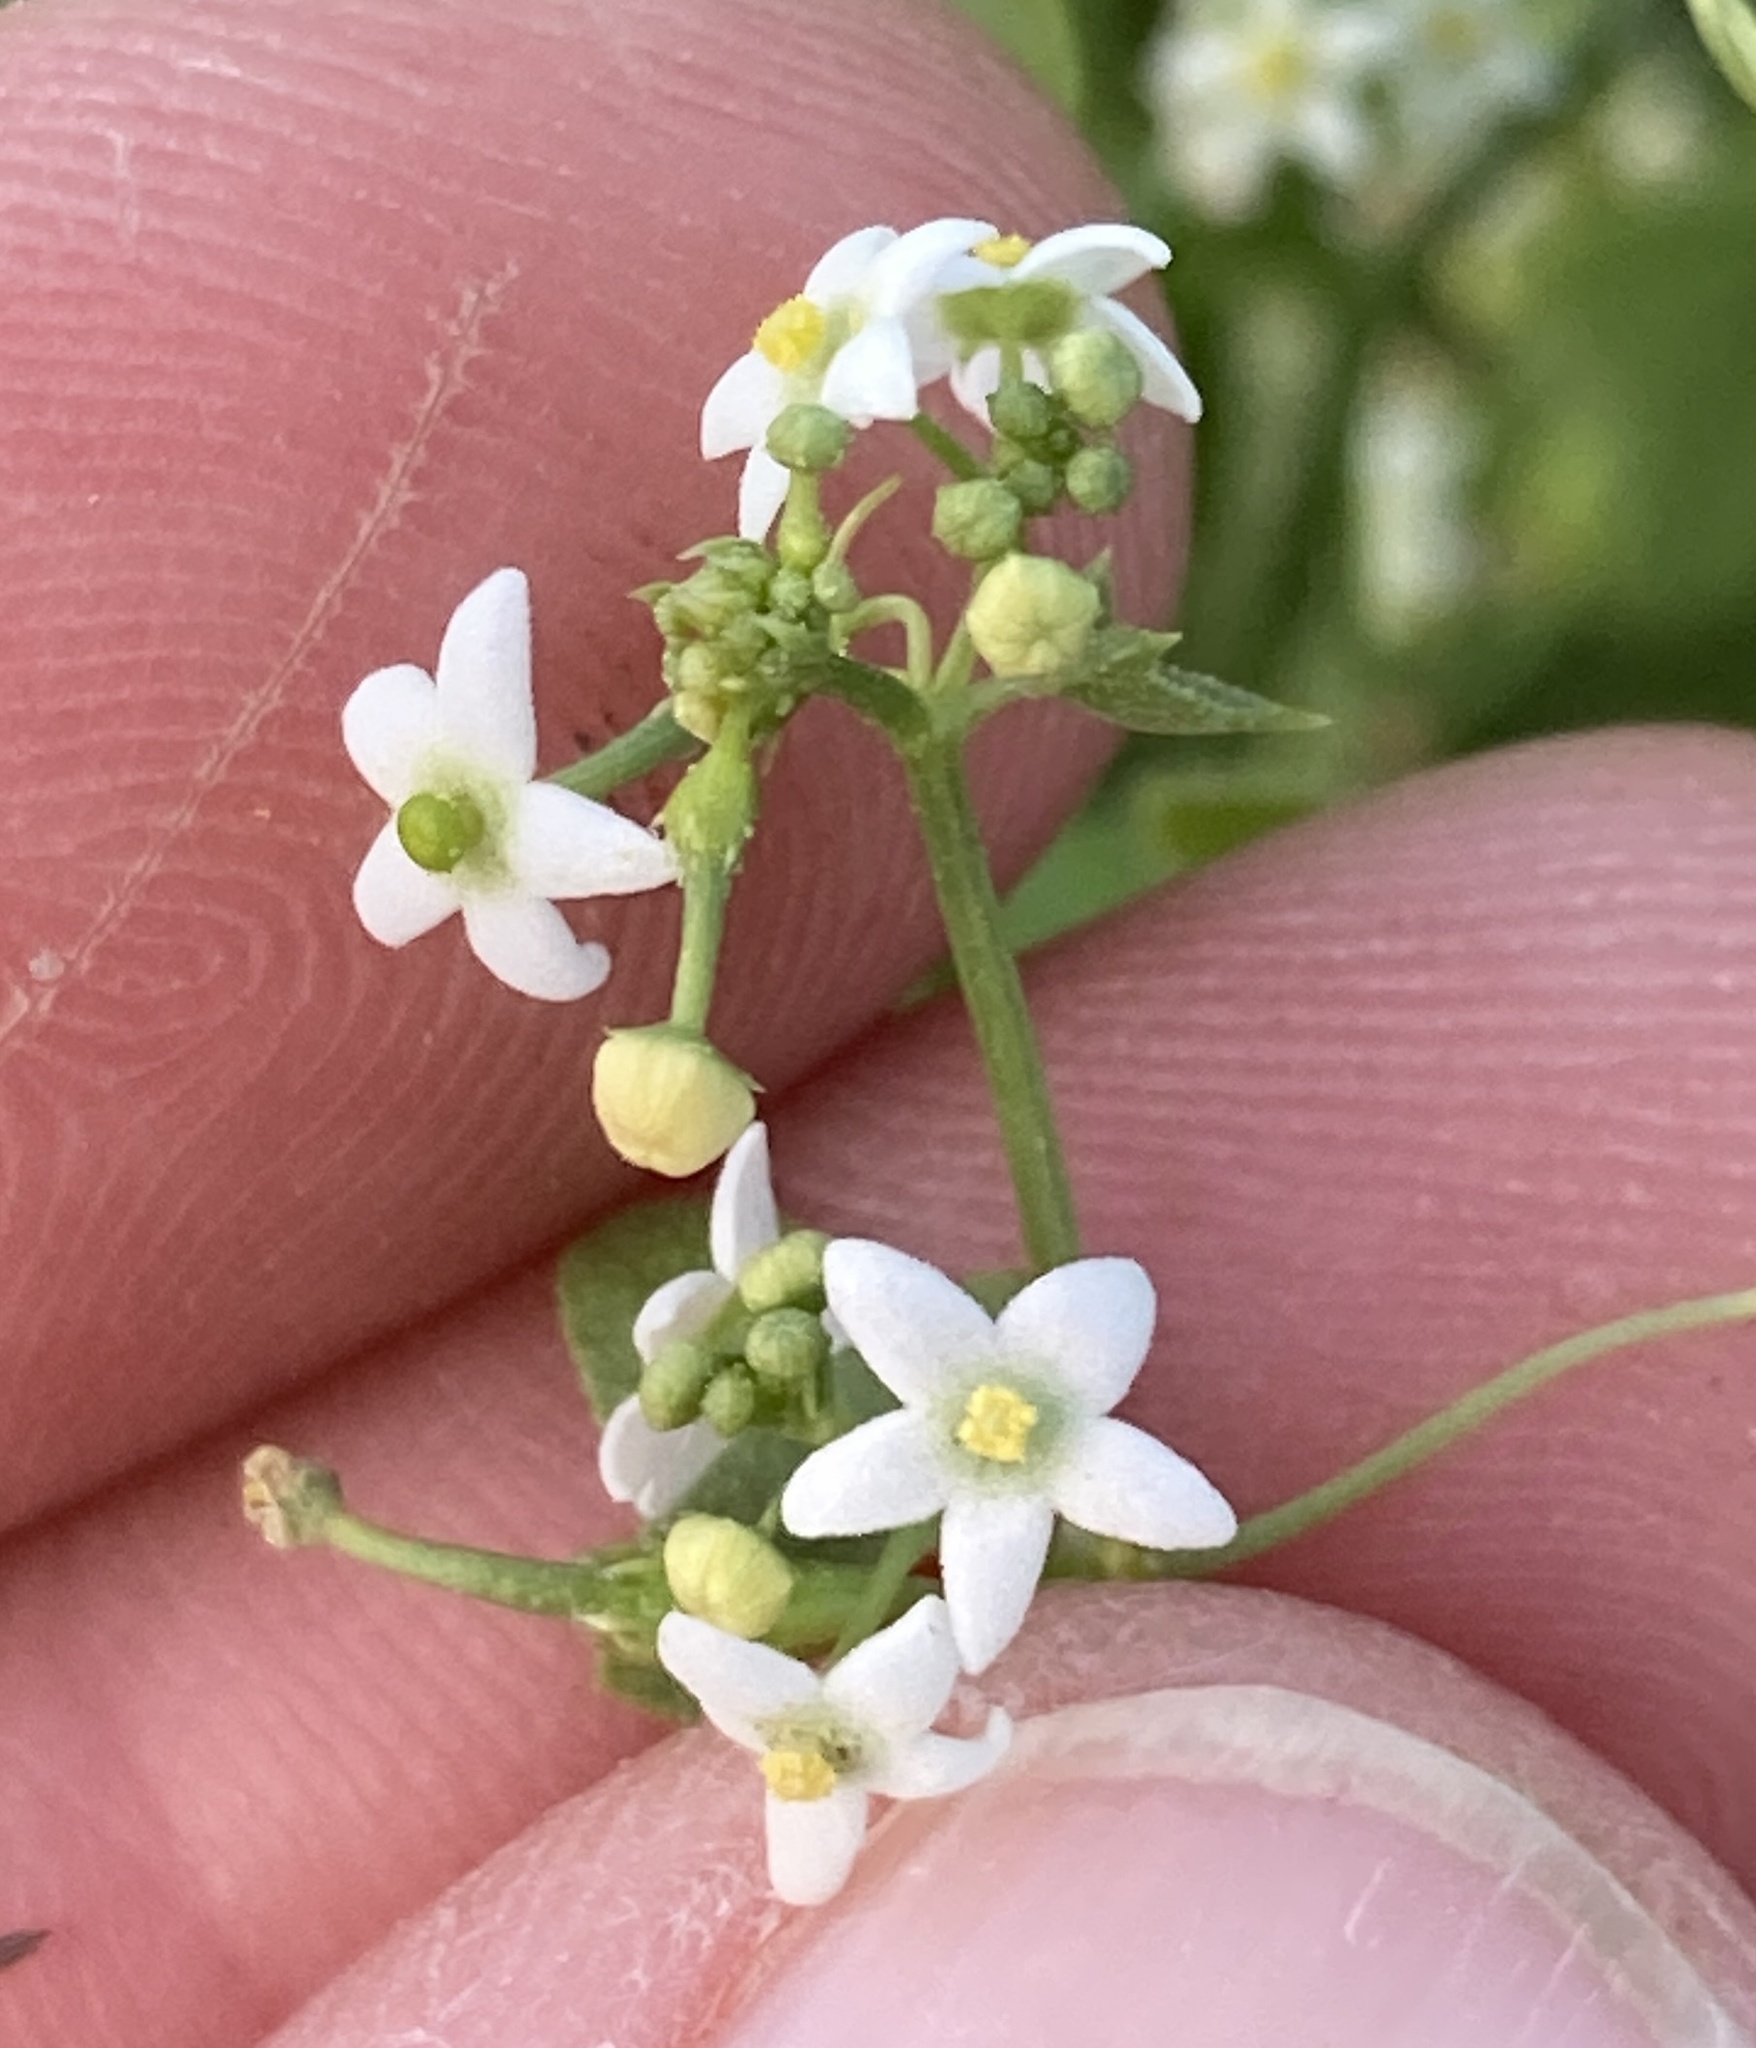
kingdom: Plantae
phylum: Tracheophyta
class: Magnoliopsida
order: Cucurbitales
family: Cucurbitaceae
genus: Echinopepon
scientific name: Echinopepon bigelovii
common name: Desert starvine
